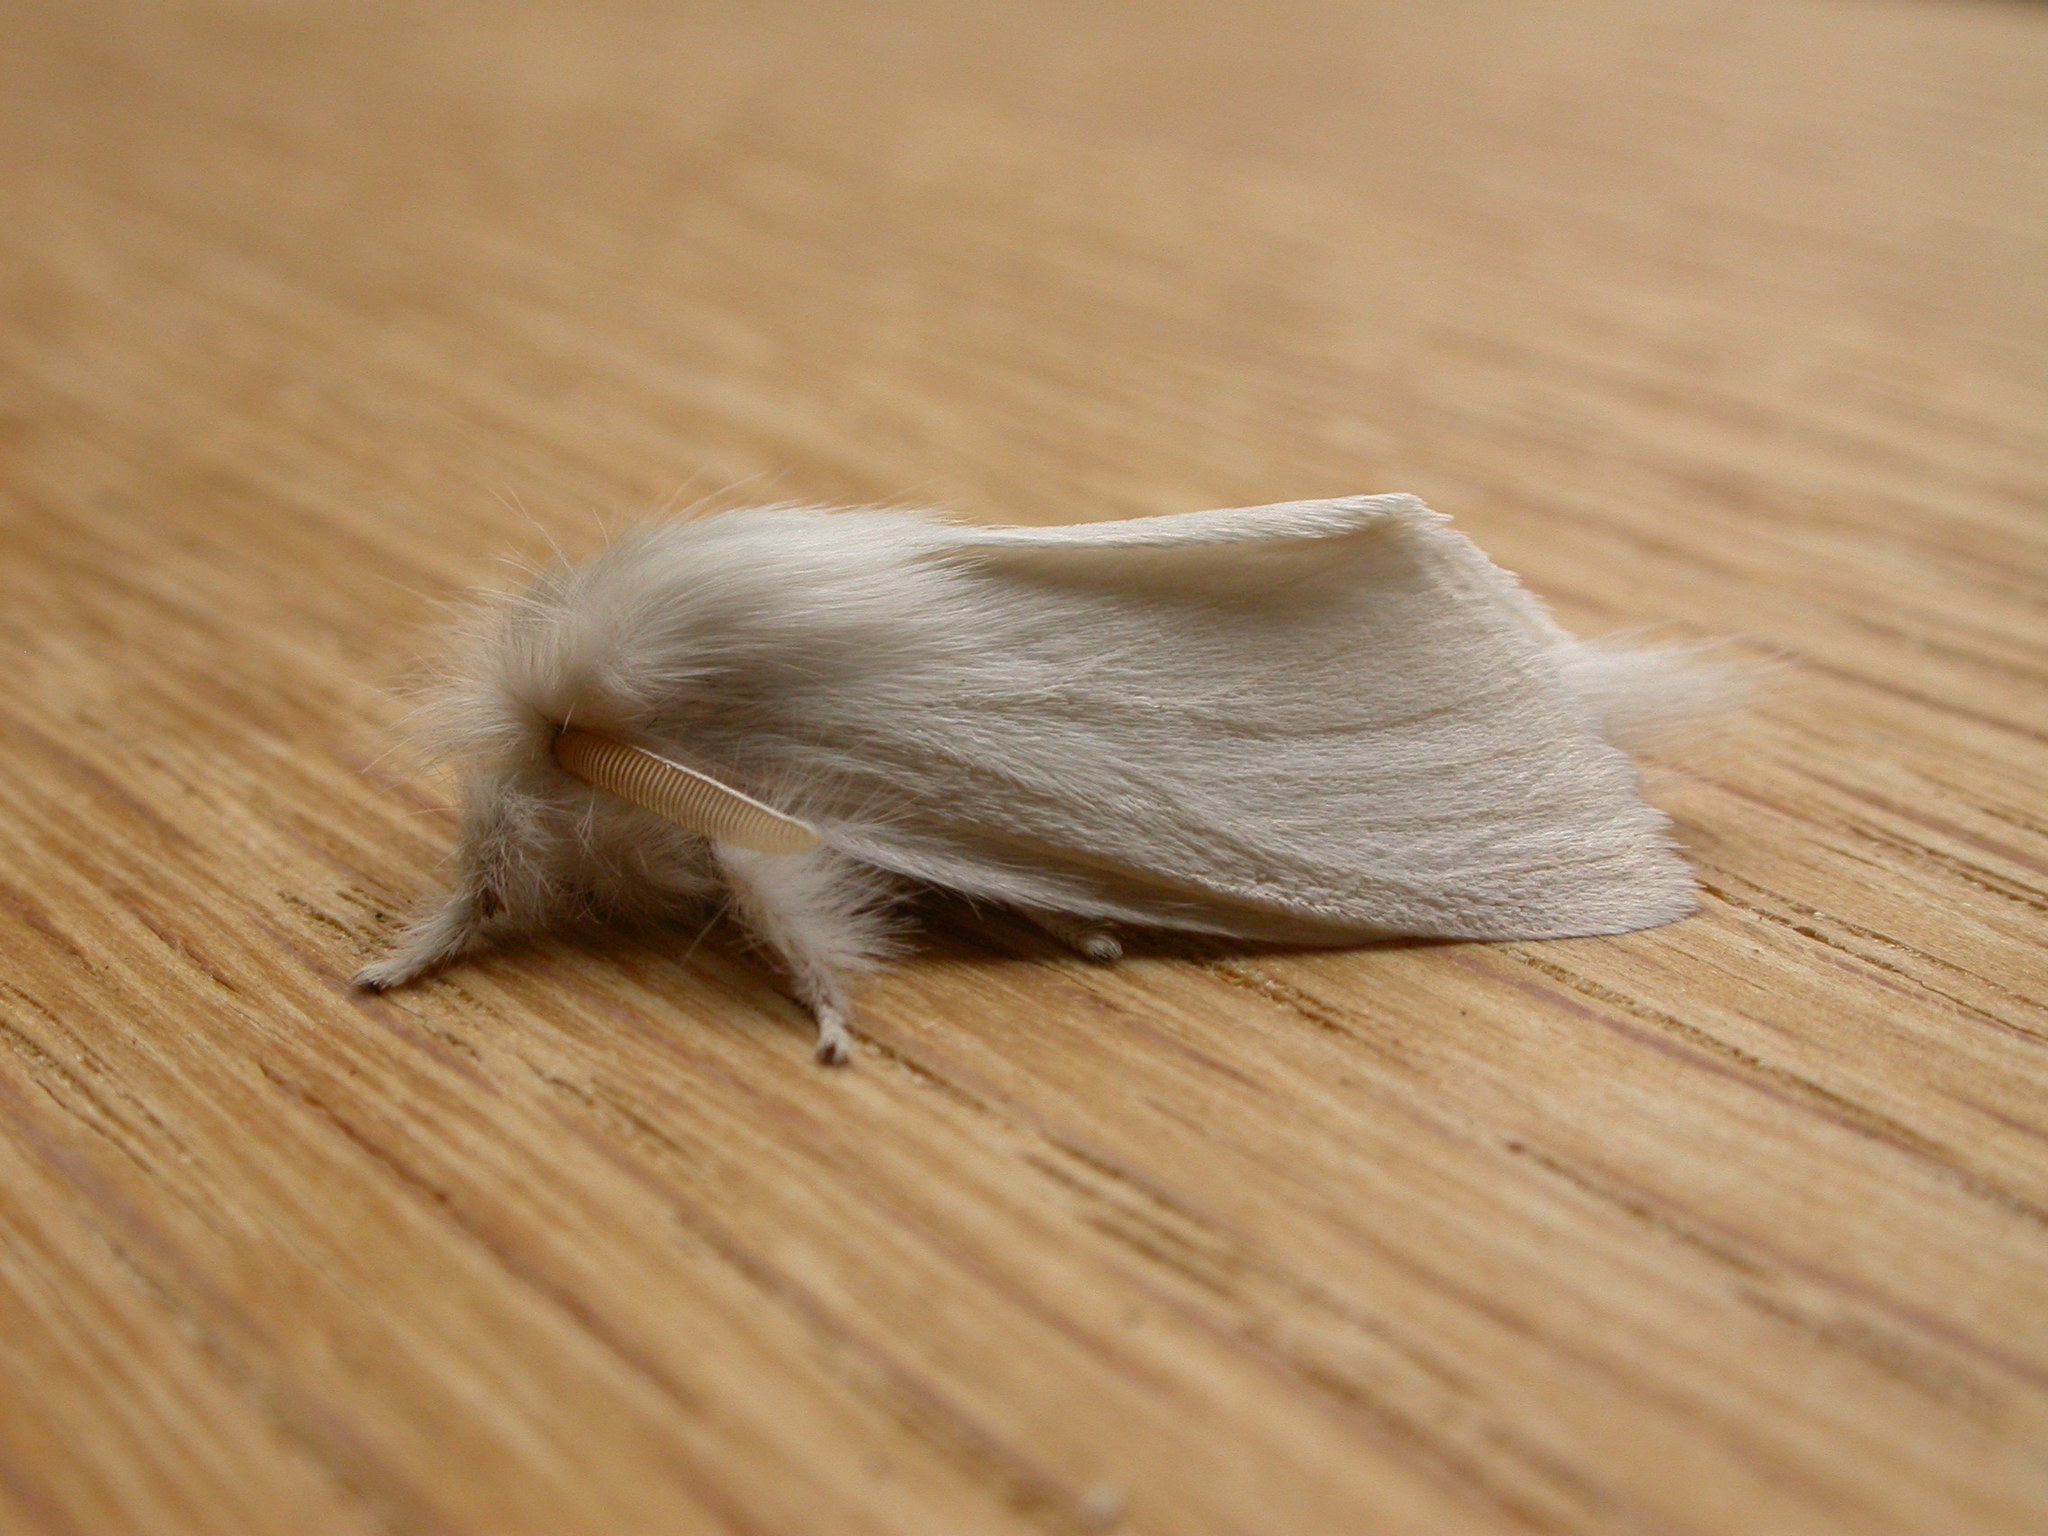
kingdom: Animalia
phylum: Arthropoda
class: Insecta
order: Lepidoptera
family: Notodontidae
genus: Trichiocercus
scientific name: Trichiocercus sparshalli
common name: Long-tailed satin
